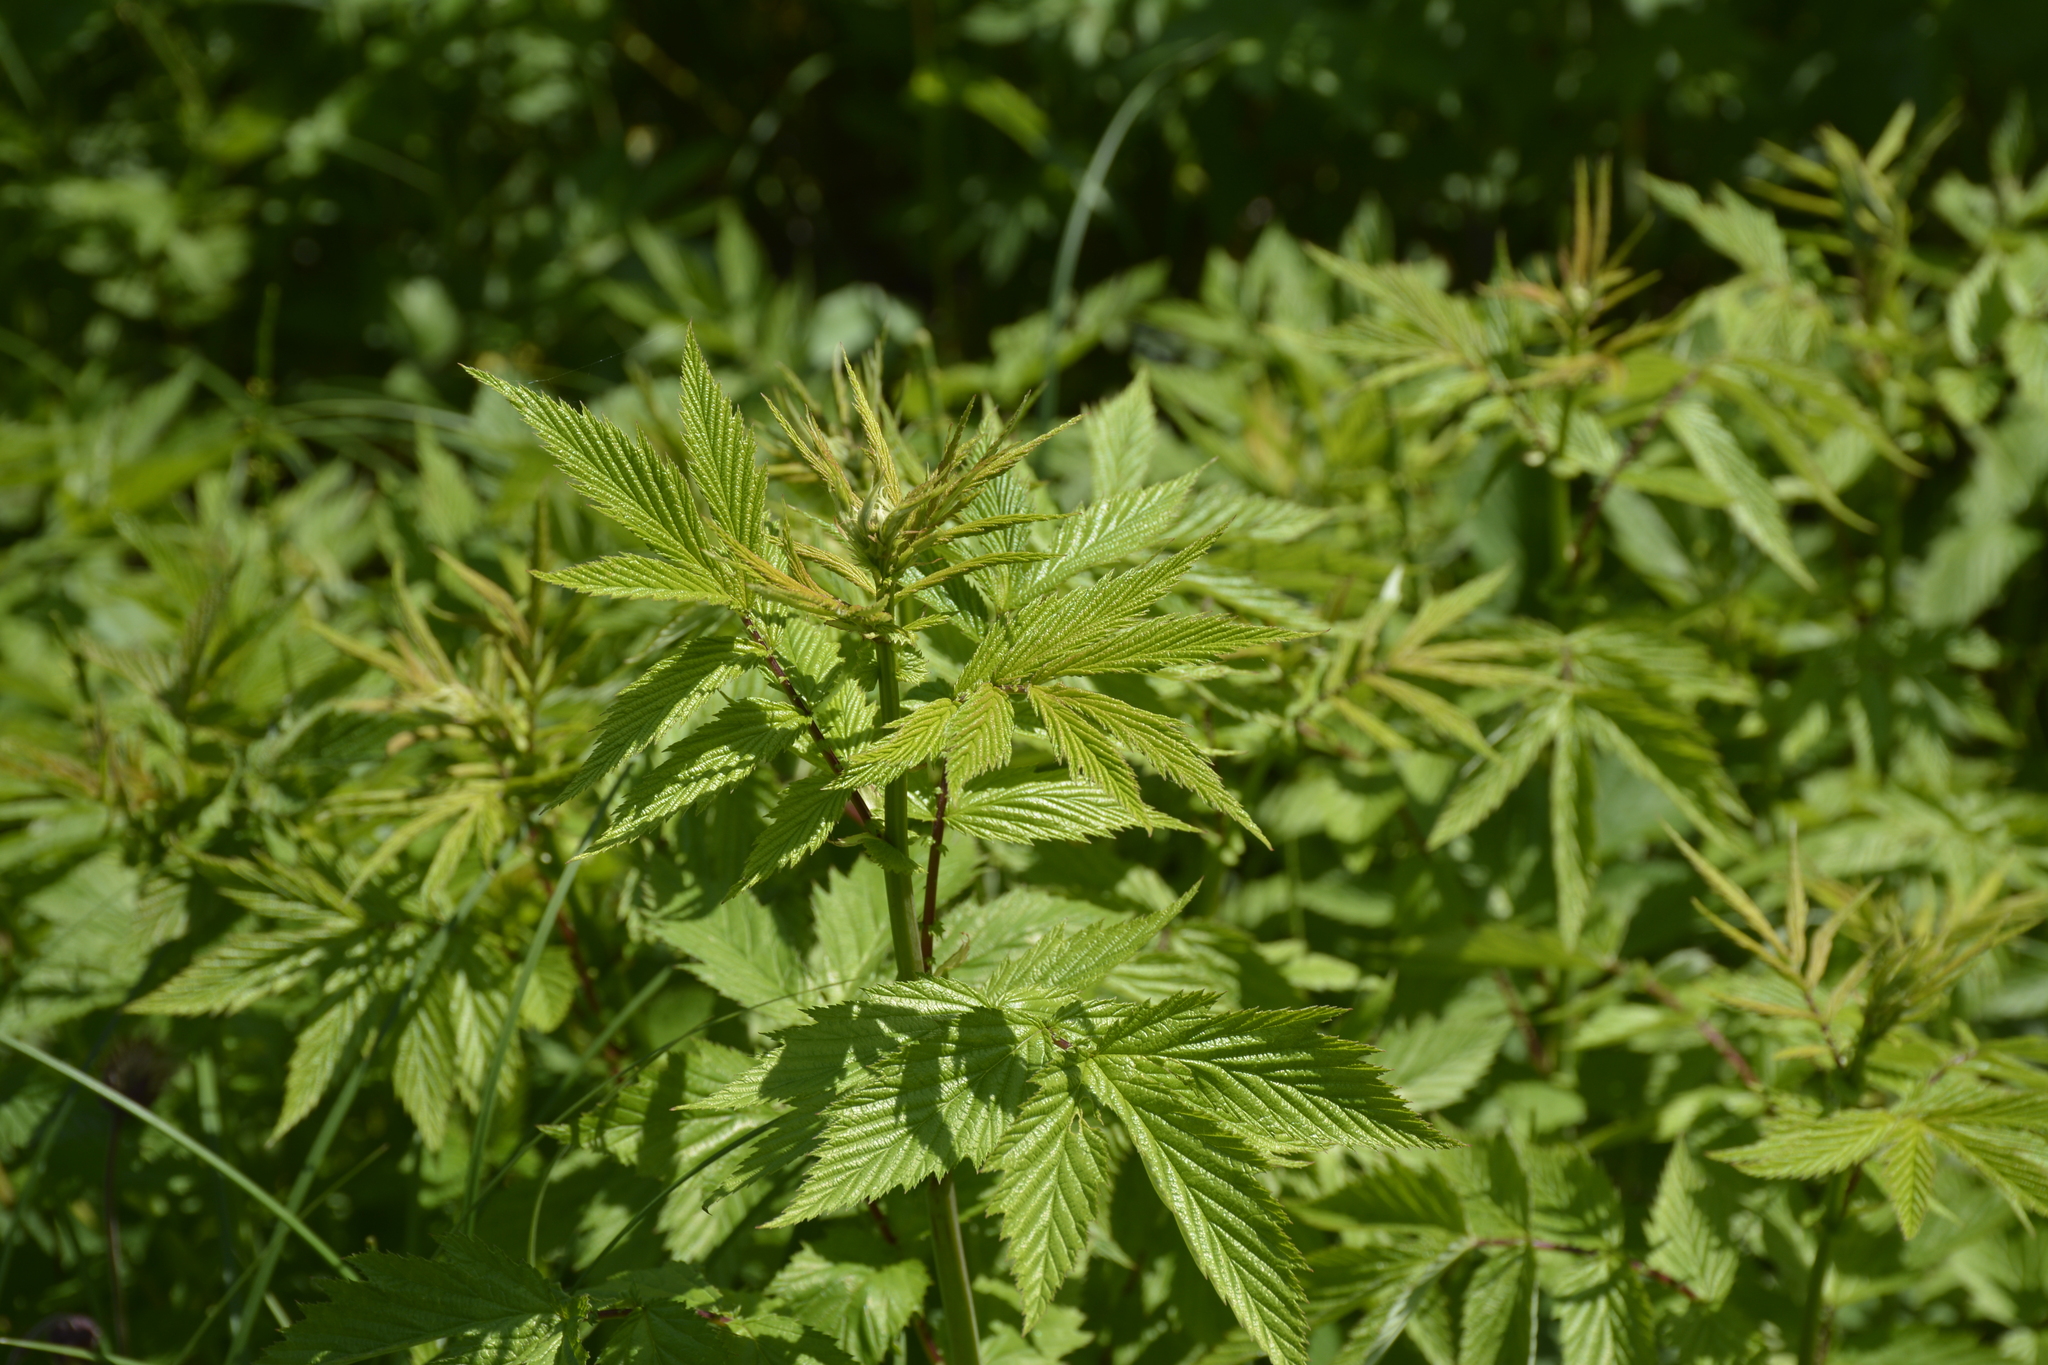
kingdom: Plantae
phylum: Tracheophyta
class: Magnoliopsida
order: Rosales
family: Rosaceae
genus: Filipendula
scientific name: Filipendula ulmaria
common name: Meadowsweet
